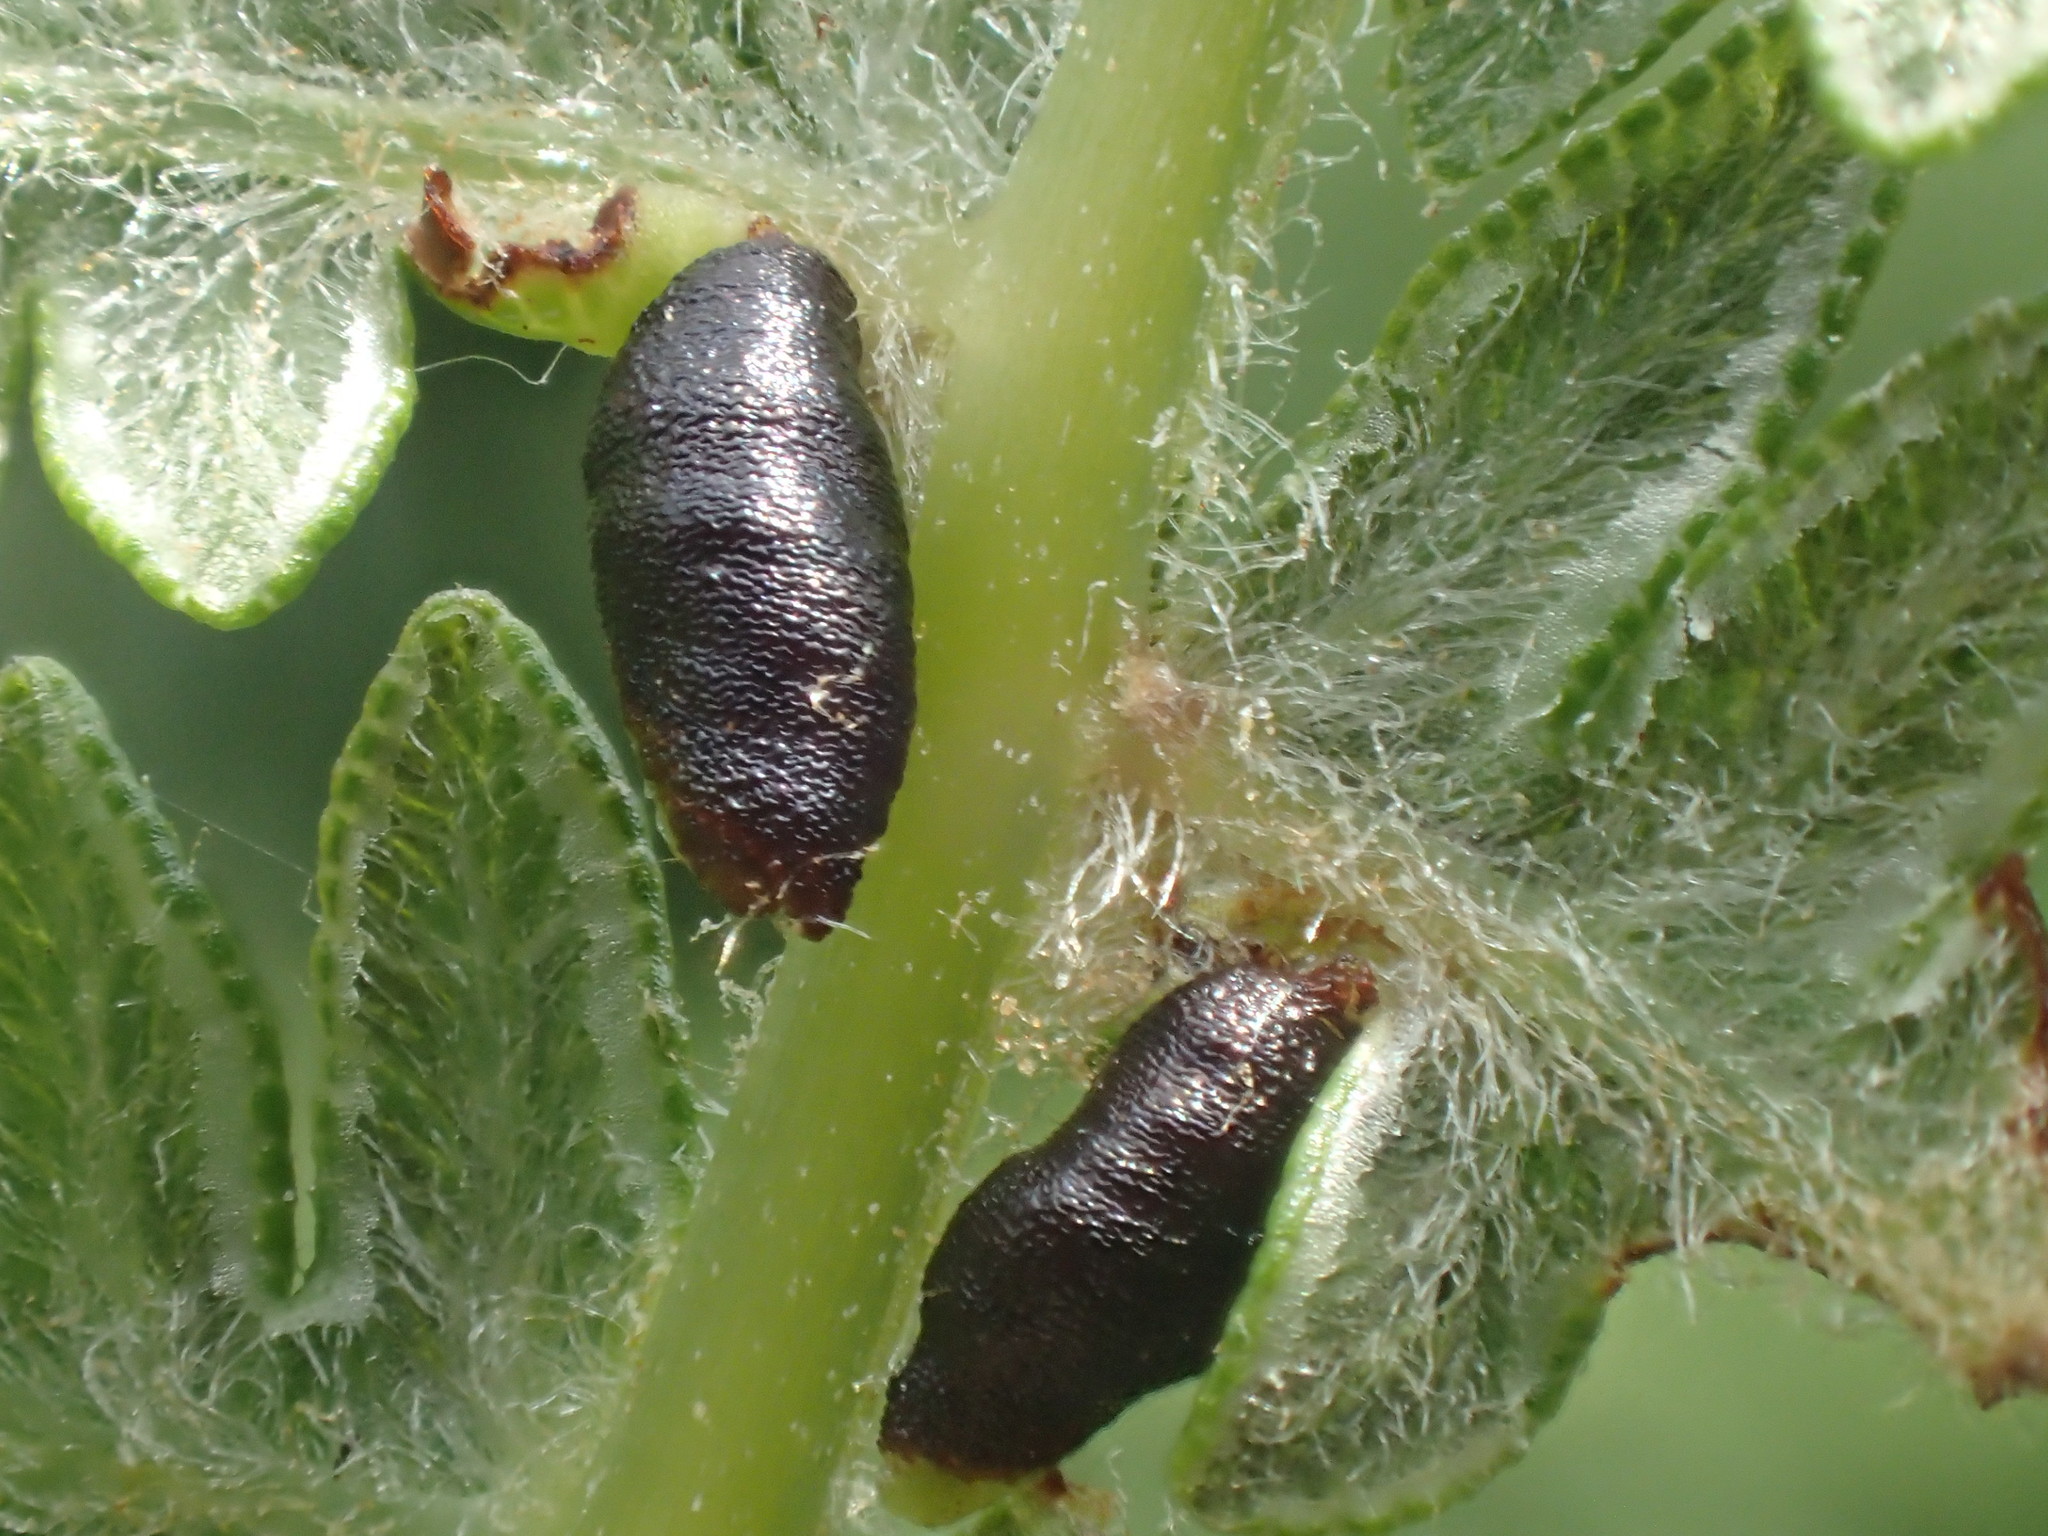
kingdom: Animalia
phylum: Arthropoda
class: Insecta
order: Diptera
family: Cecidomyiidae
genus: Dasineura
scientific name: Dasineura pteridis
